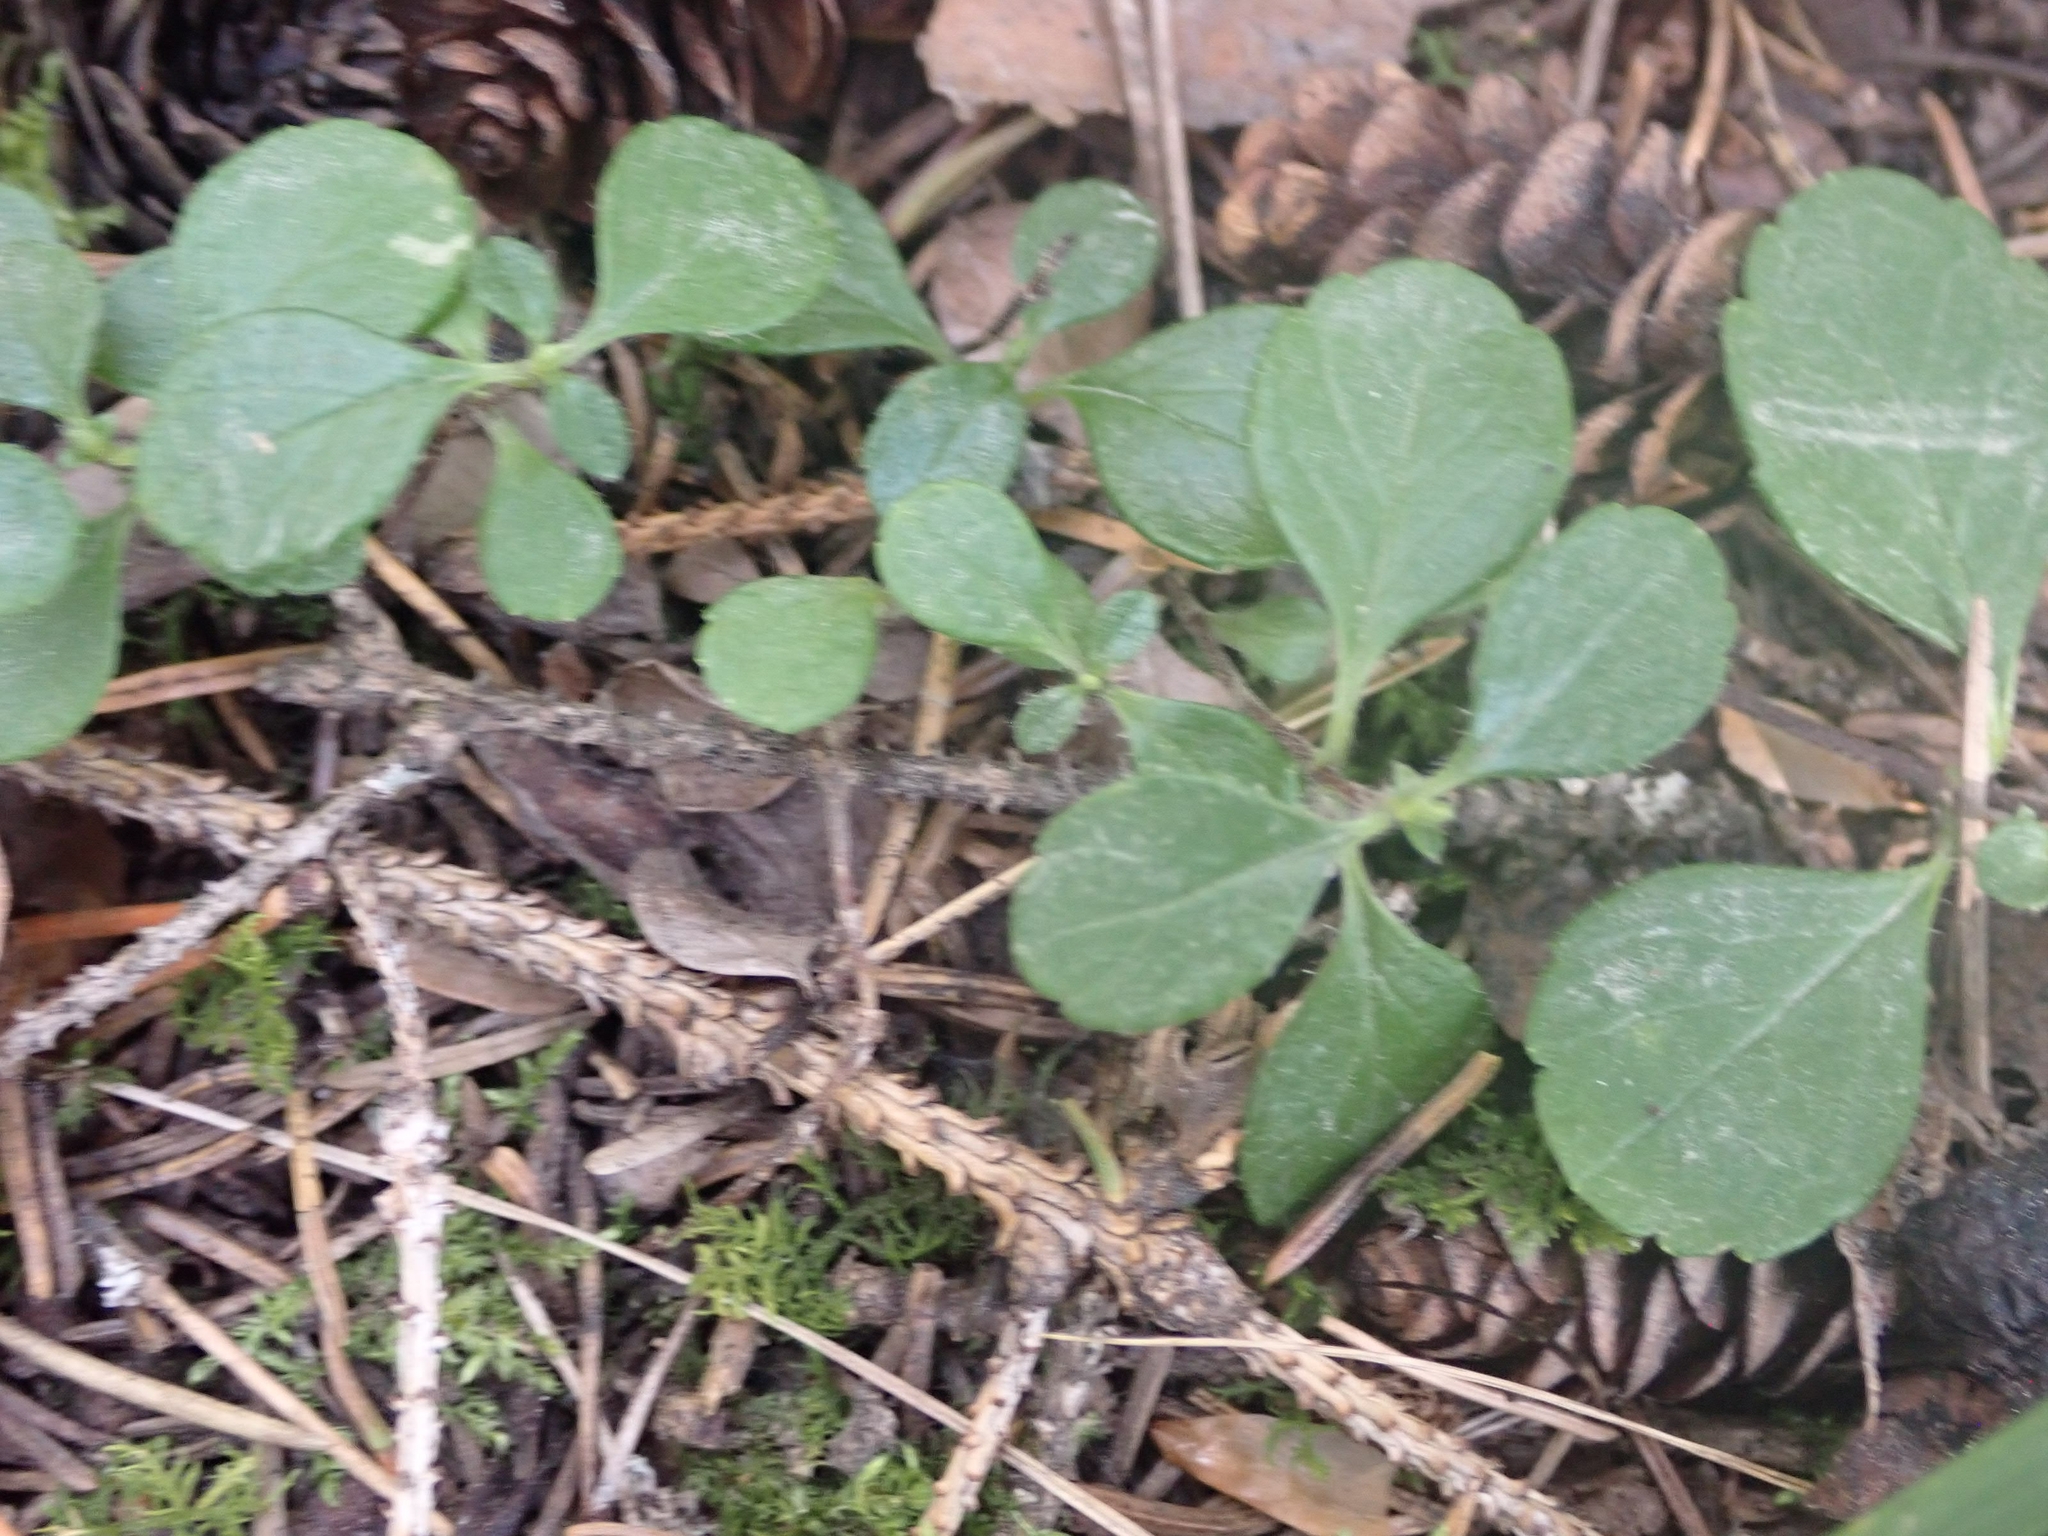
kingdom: Plantae
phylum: Tracheophyta
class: Magnoliopsida
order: Dipsacales
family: Caprifoliaceae
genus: Linnaea
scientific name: Linnaea borealis
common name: Twinflower
